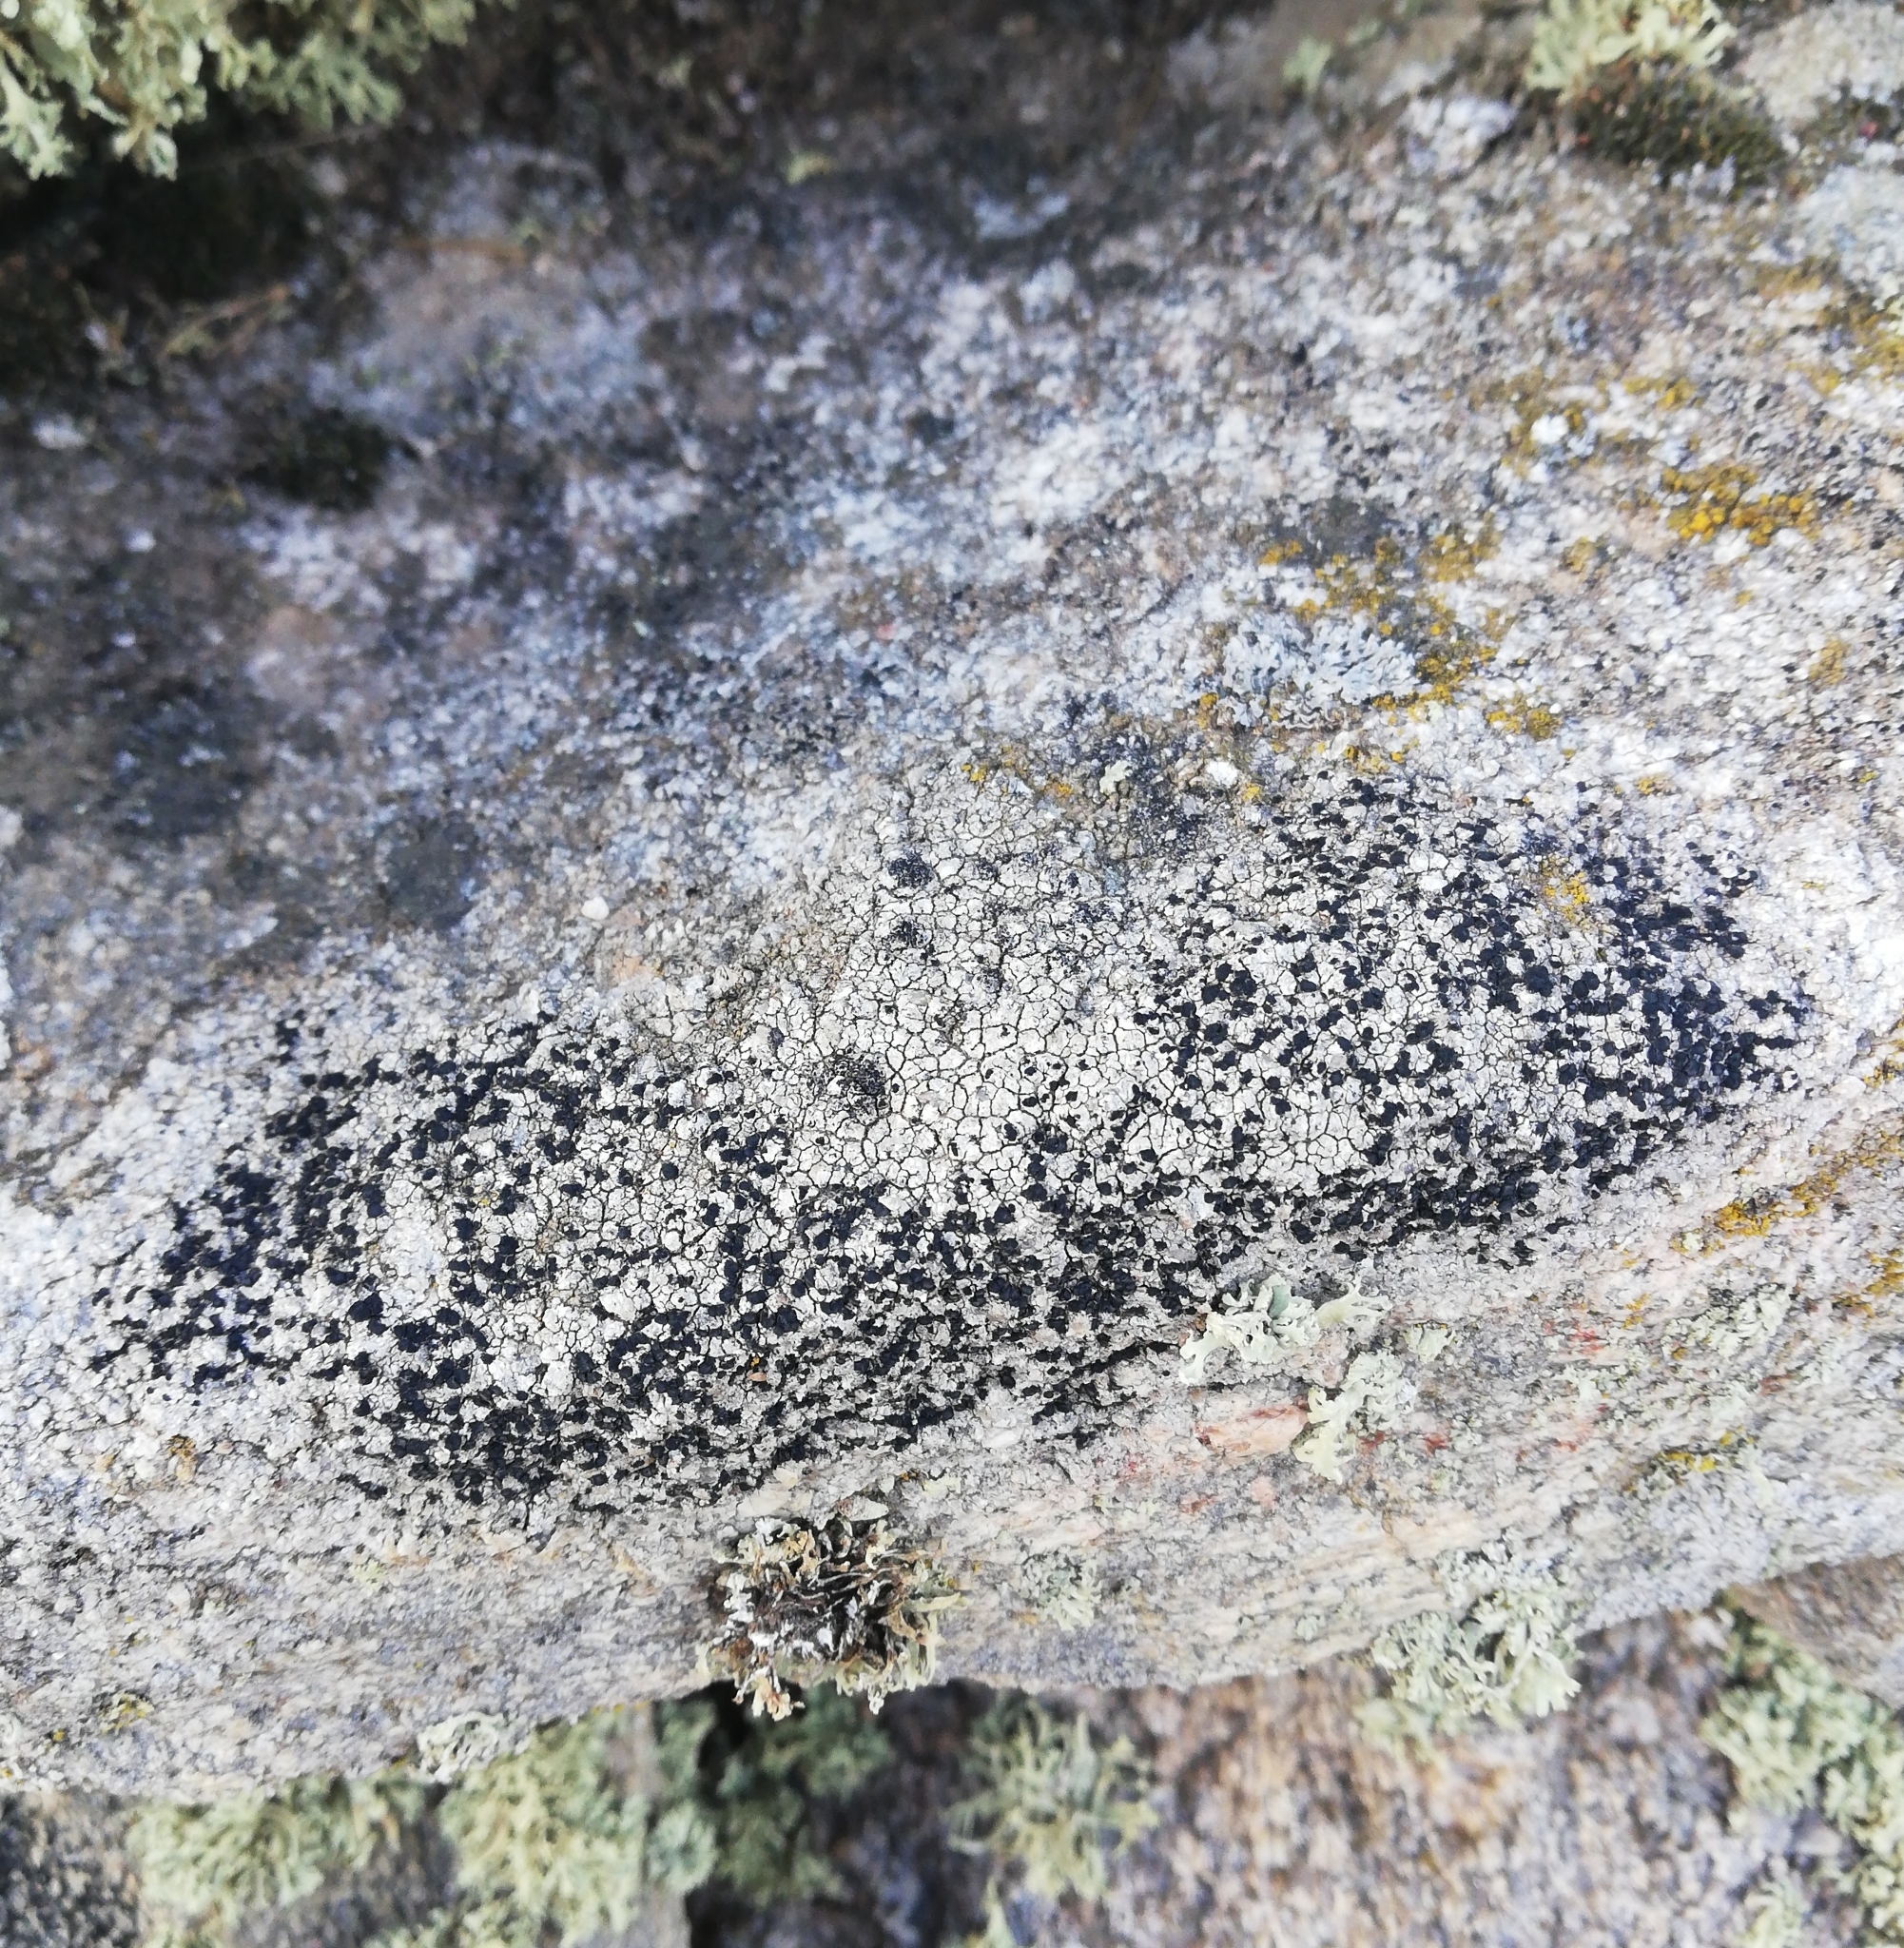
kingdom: Fungi
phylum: Ascomycota
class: Lecanoromycetes
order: Lecanorales
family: Tephromelataceae
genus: Tephromela
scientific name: Tephromela atra
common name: Black shields
